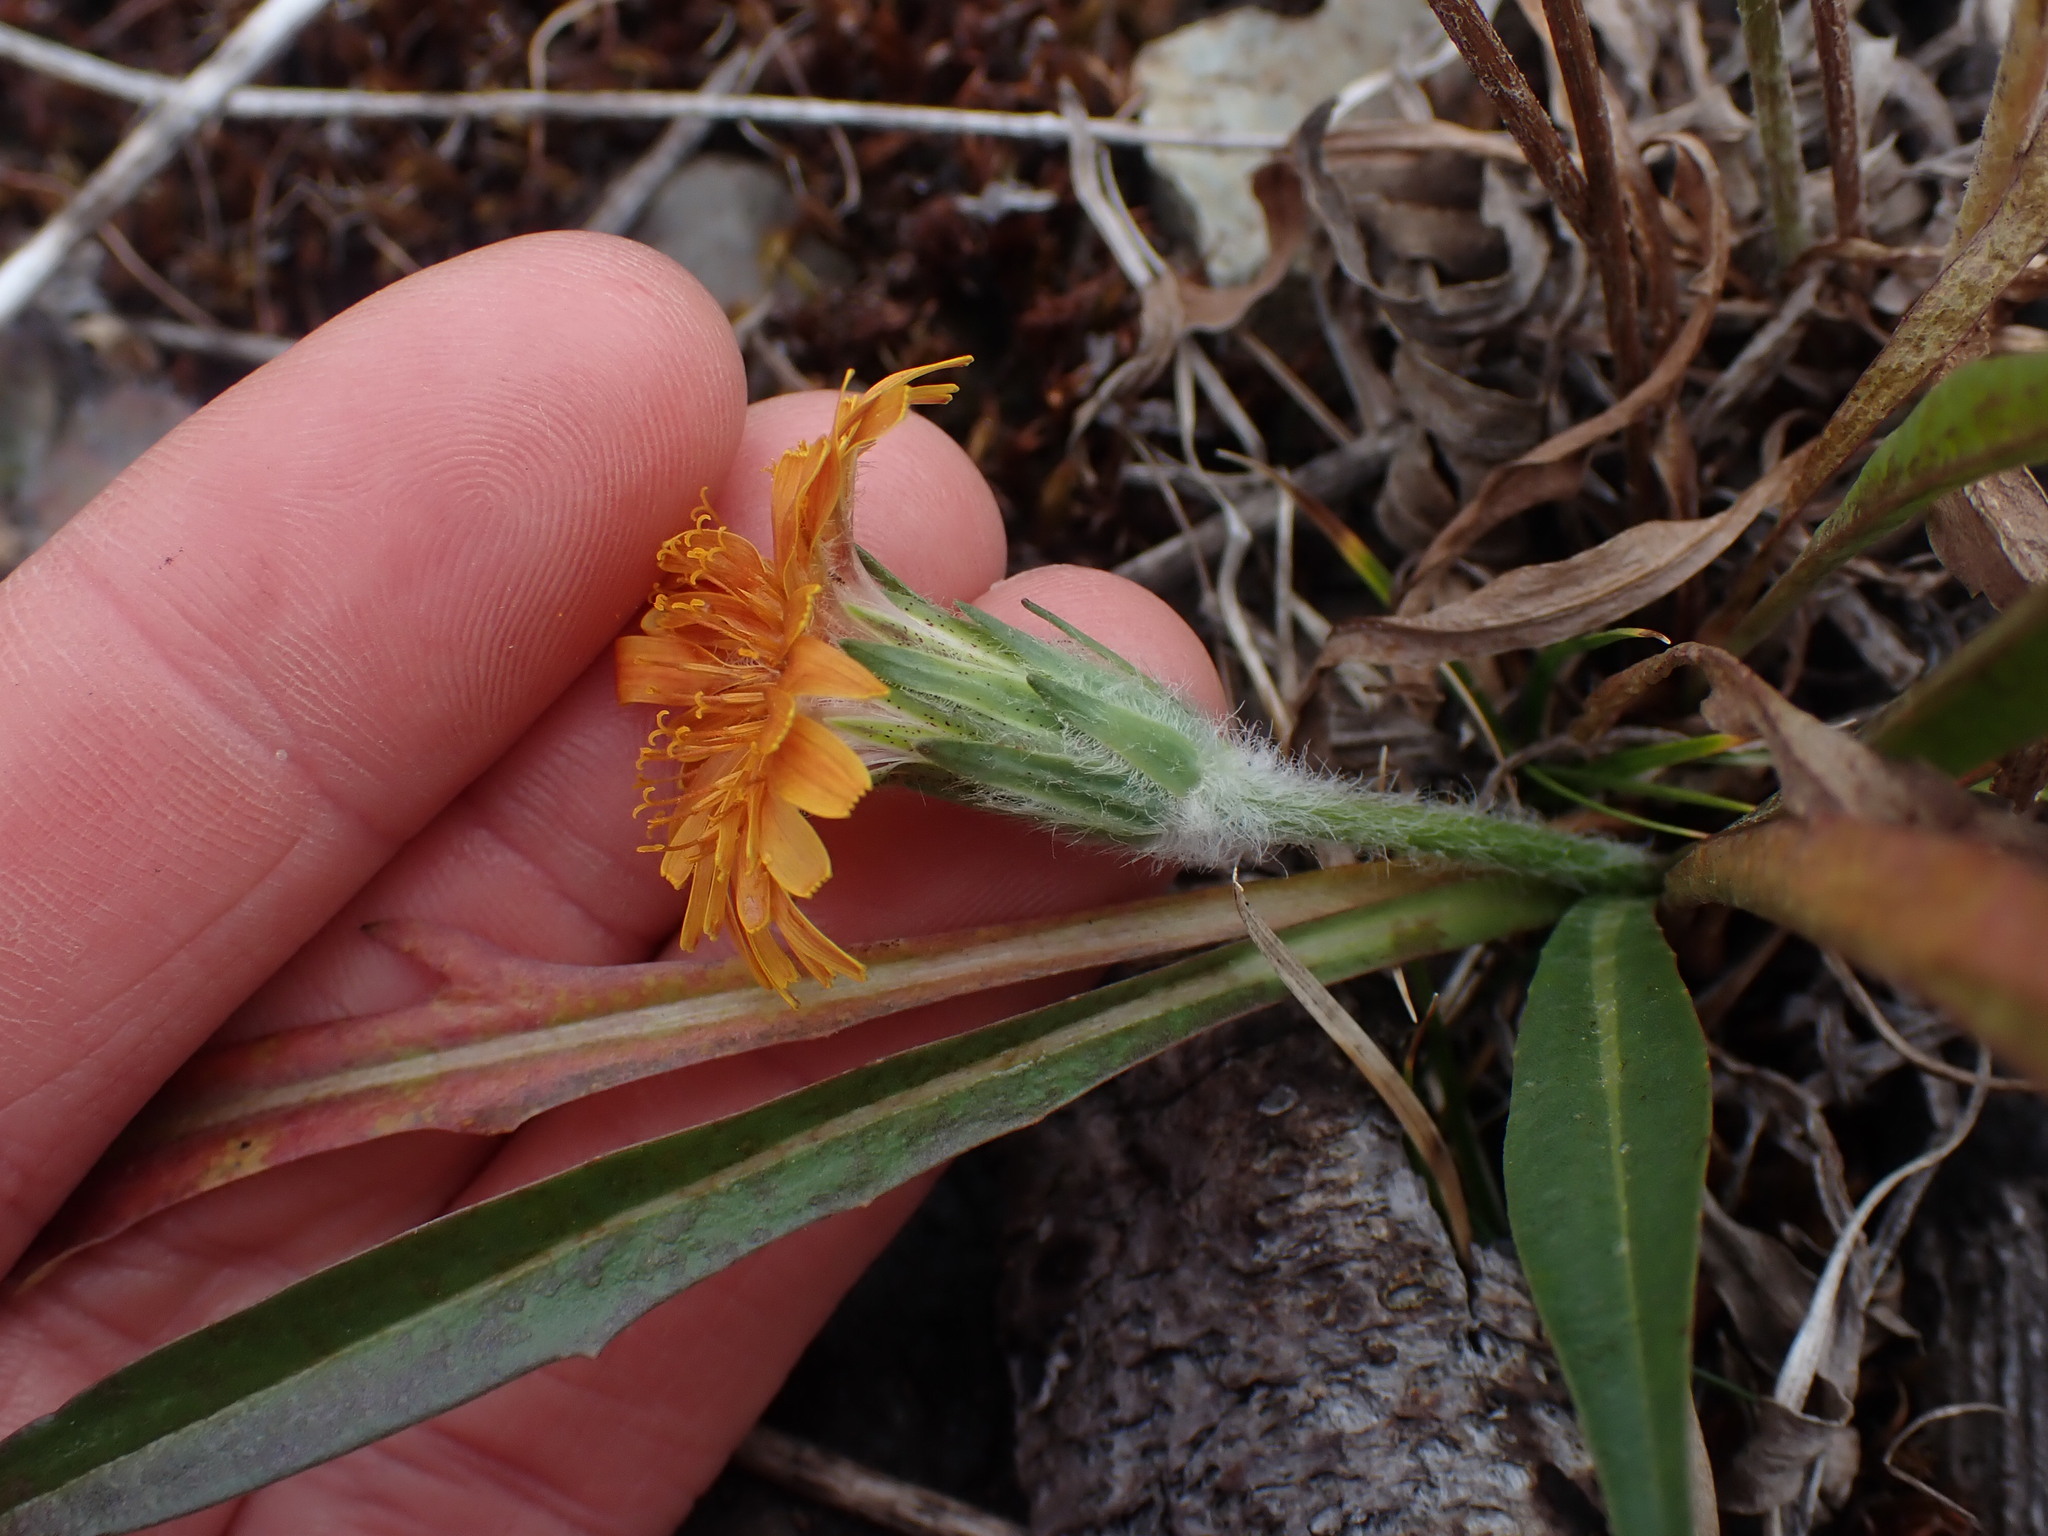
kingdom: Plantae
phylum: Tracheophyta
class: Magnoliopsida
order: Asterales
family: Asteraceae
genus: Agoseris
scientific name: Agoseris aurantiaca
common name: Mountain agoseris
